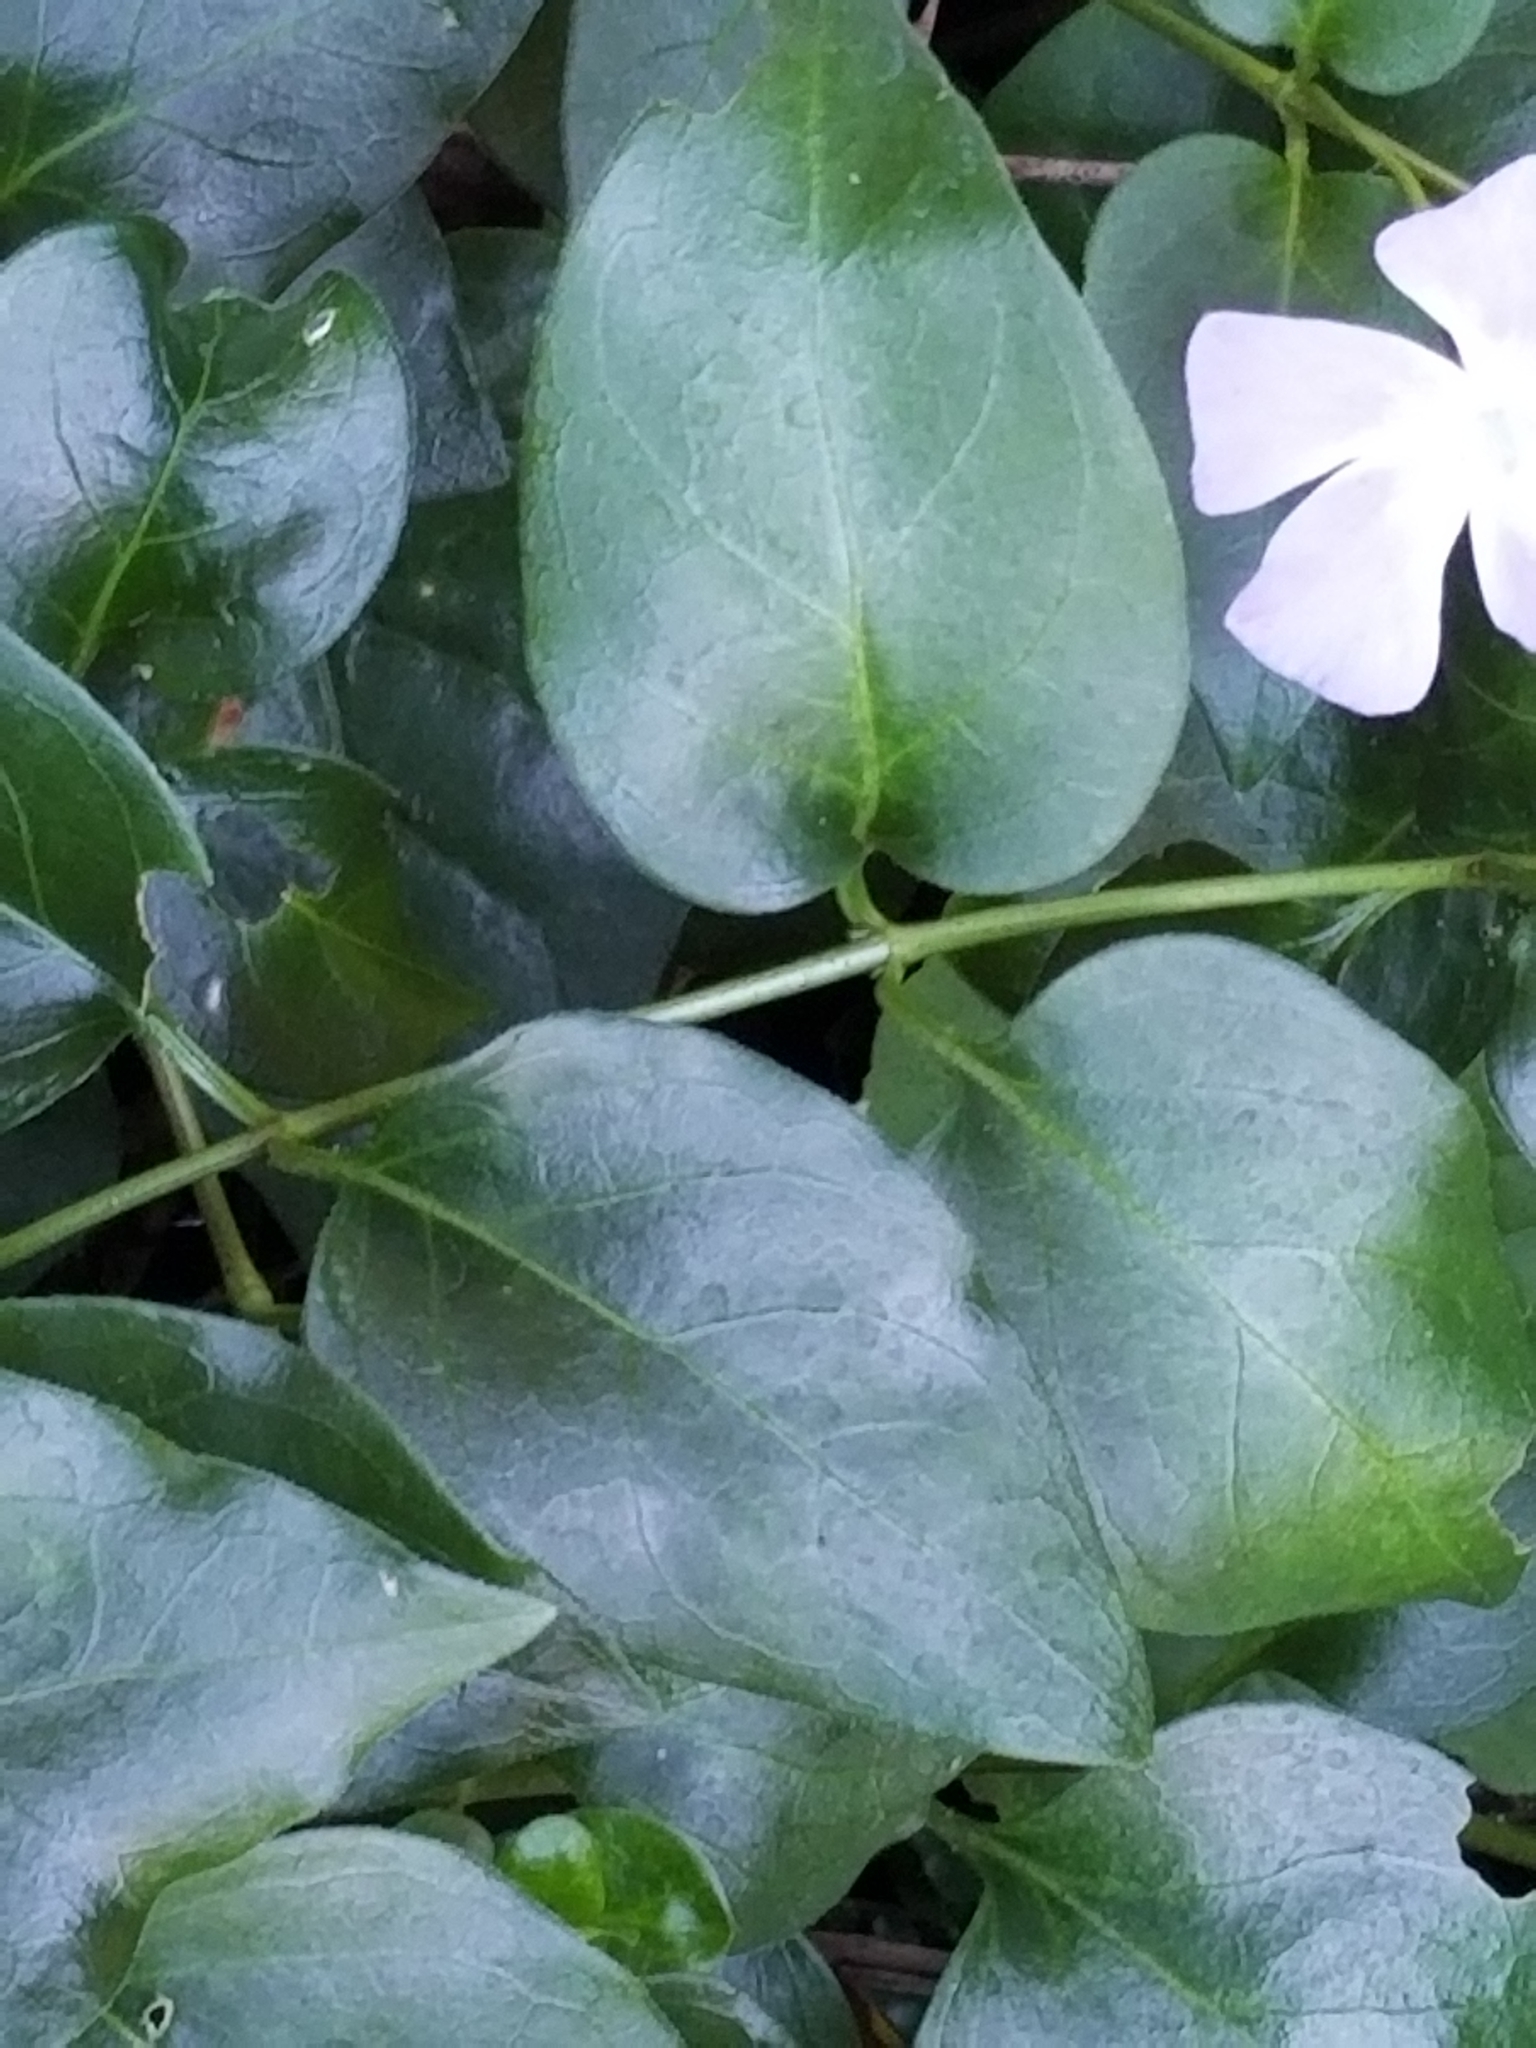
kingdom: Plantae
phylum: Tracheophyta
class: Magnoliopsida
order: Gentianales
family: Apocynaceae
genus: Vinca
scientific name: Vinca major
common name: Greater periwinkle
